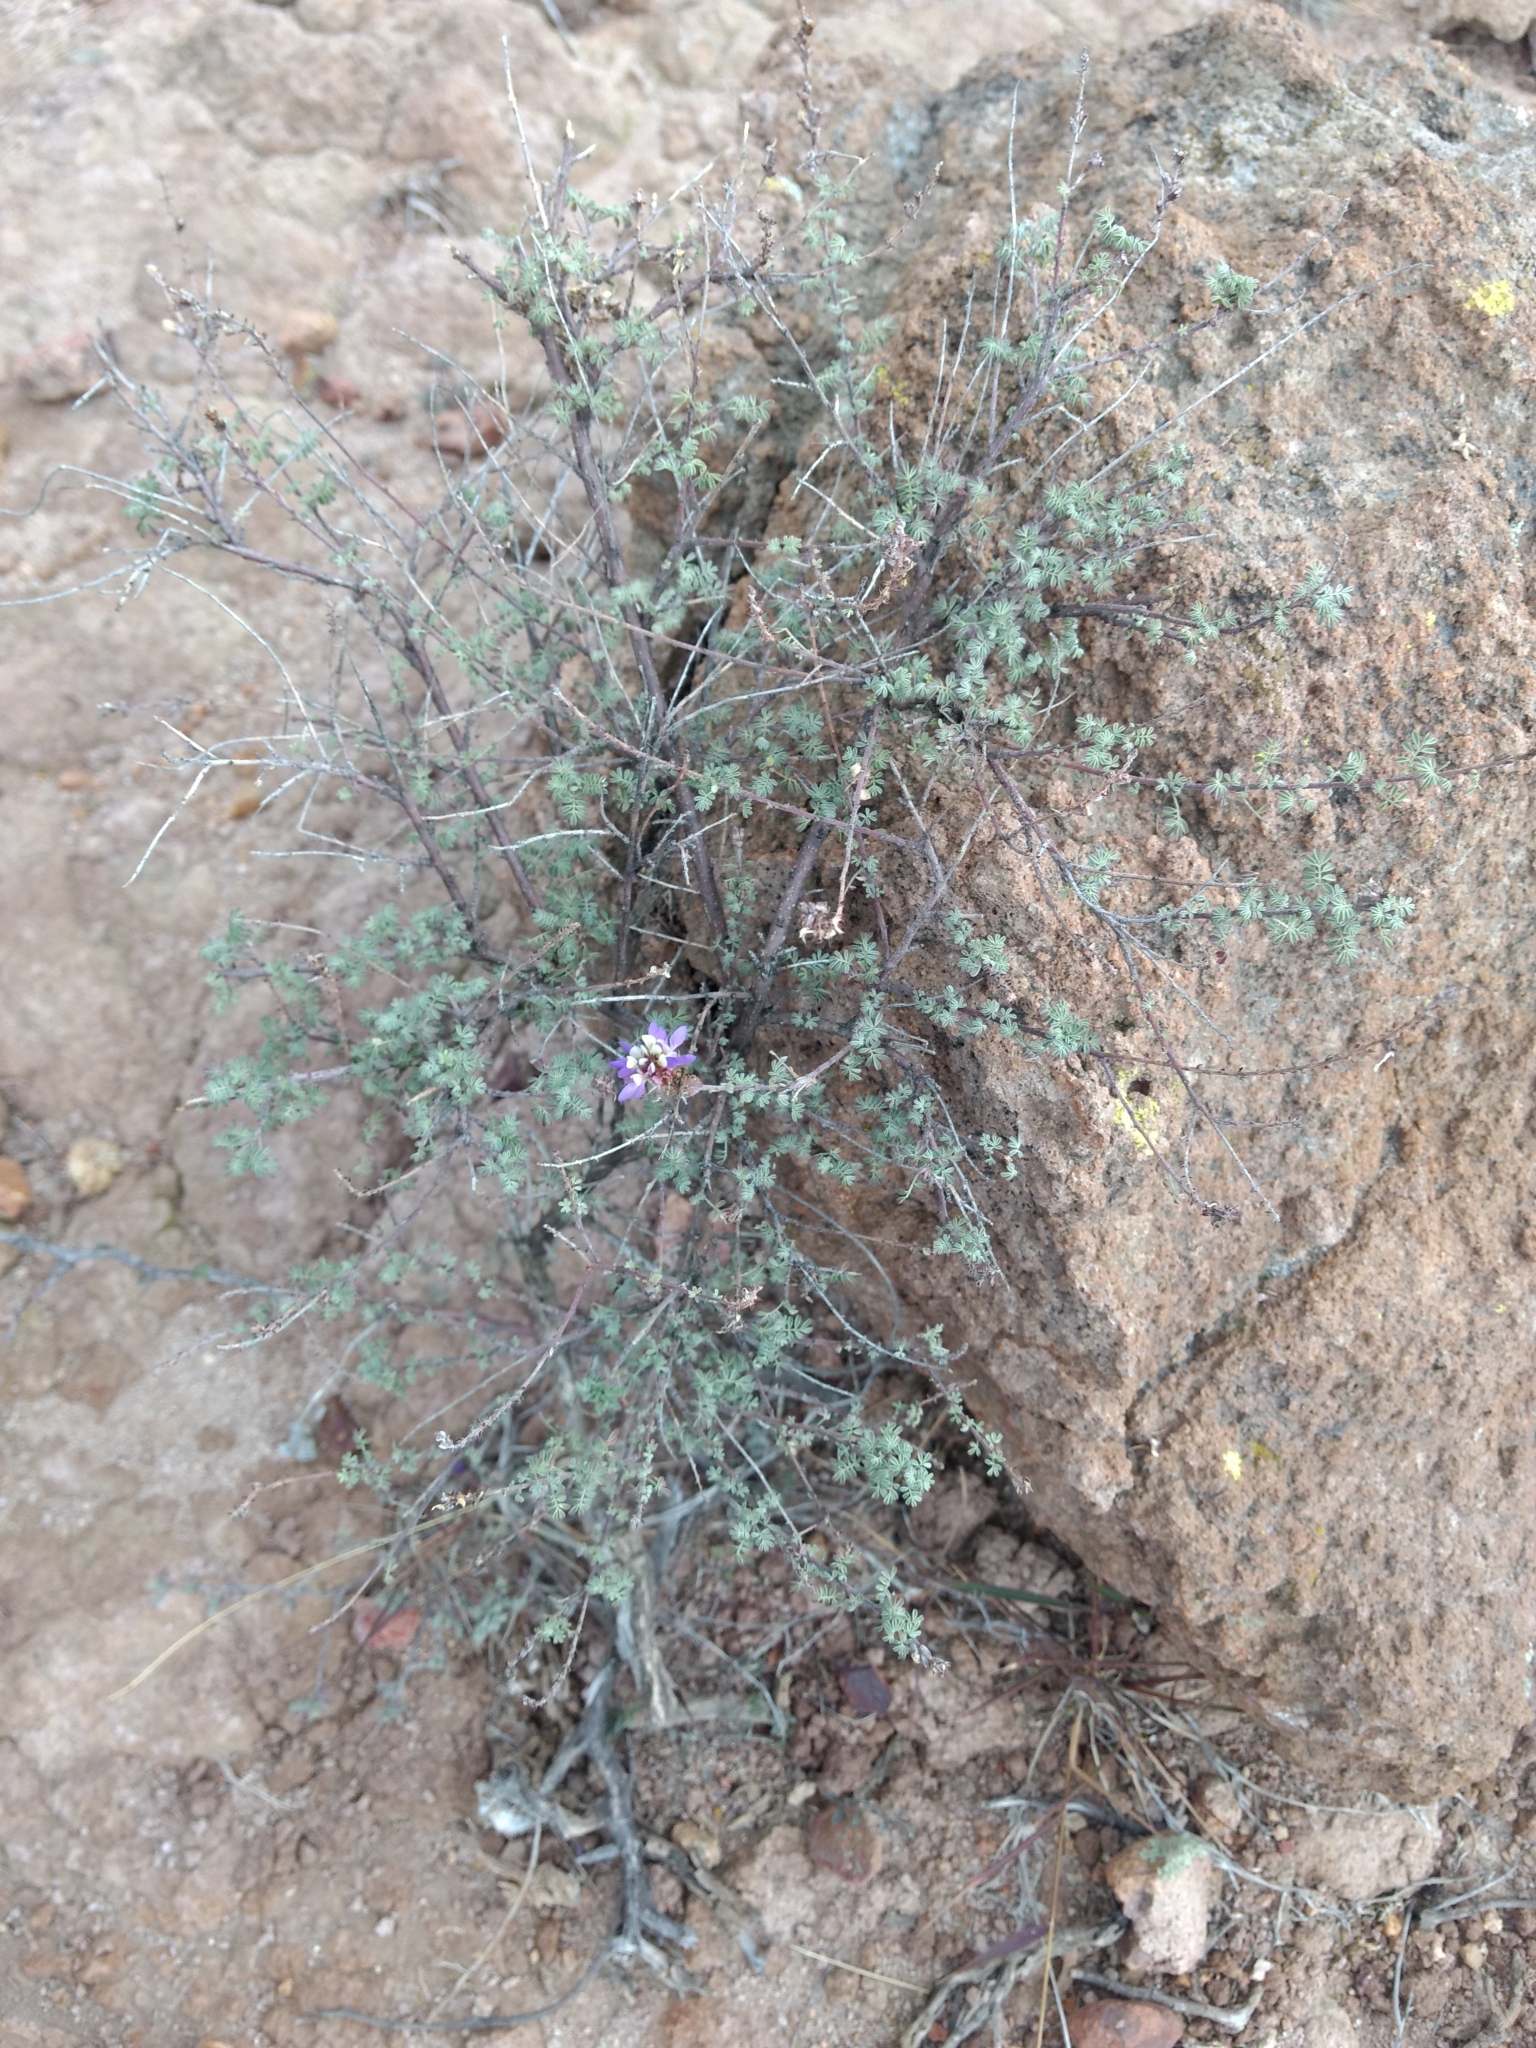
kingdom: Plantae
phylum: Tracheophyta
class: Magnoliopsida
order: Fabales
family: Fabaceae
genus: Dalea
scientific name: Dalea bicolor
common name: Silver prairie-clover
